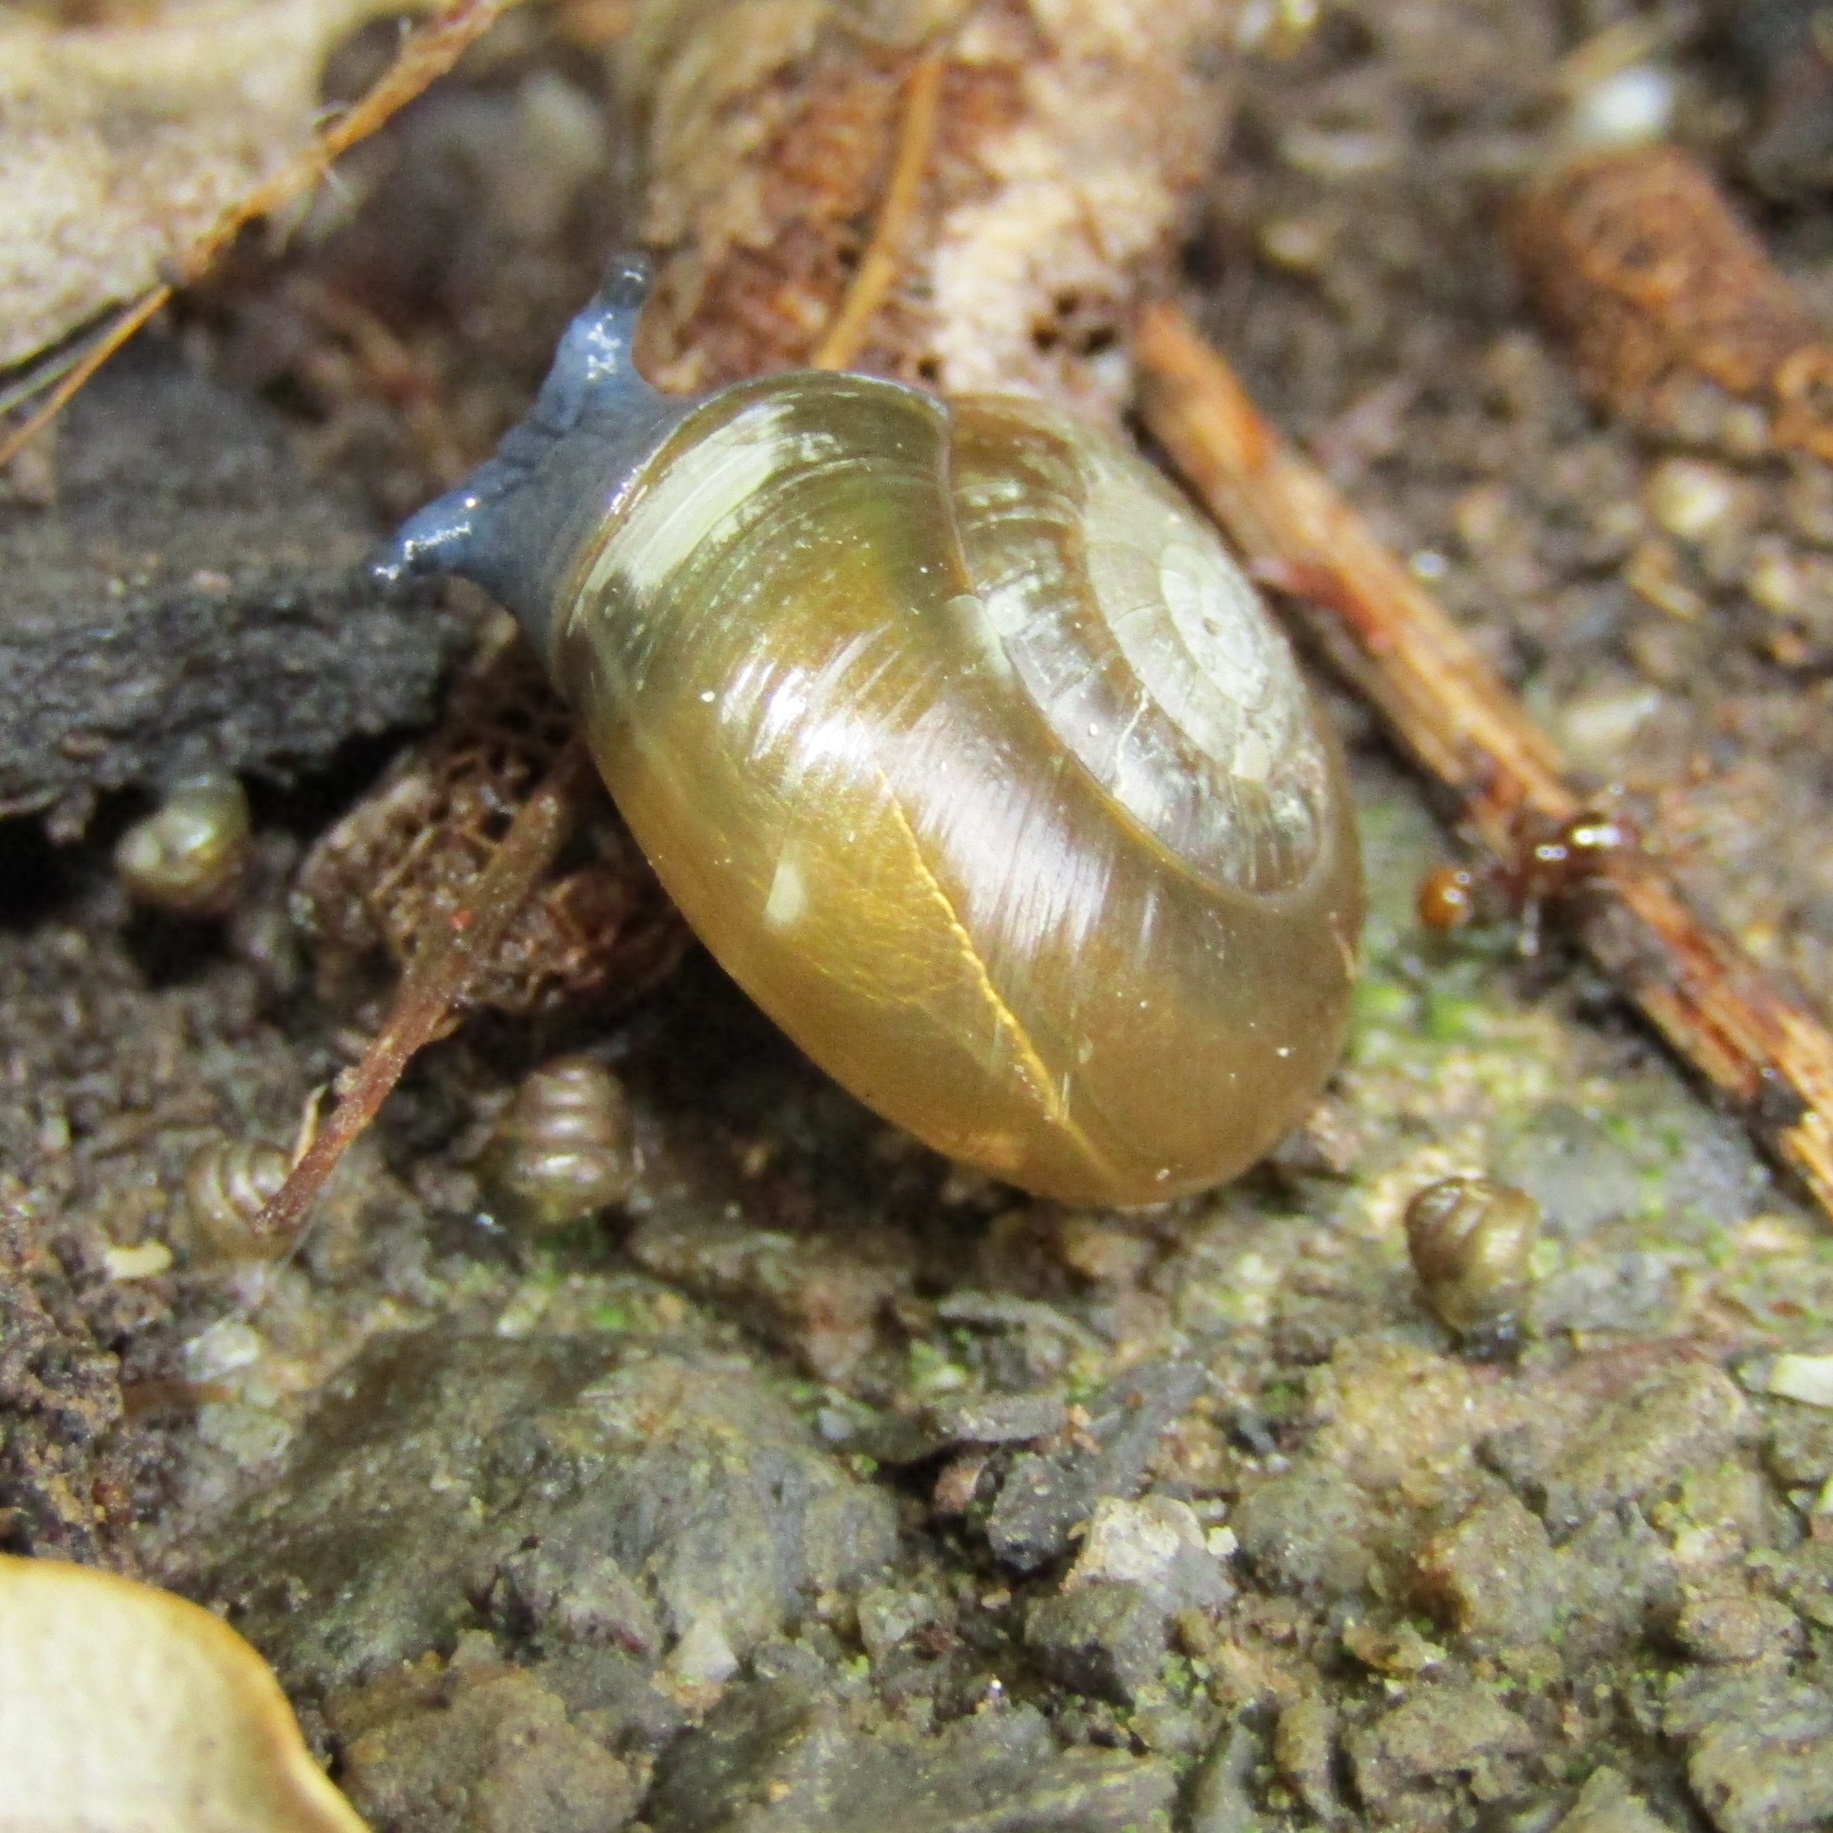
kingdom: Animalia
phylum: Mollusca
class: Gastropoda
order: Stylommatophora
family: Oxychilidae
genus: Oxychilus
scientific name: Oxychilus draparnaudi
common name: Draparnaud's glass snail
